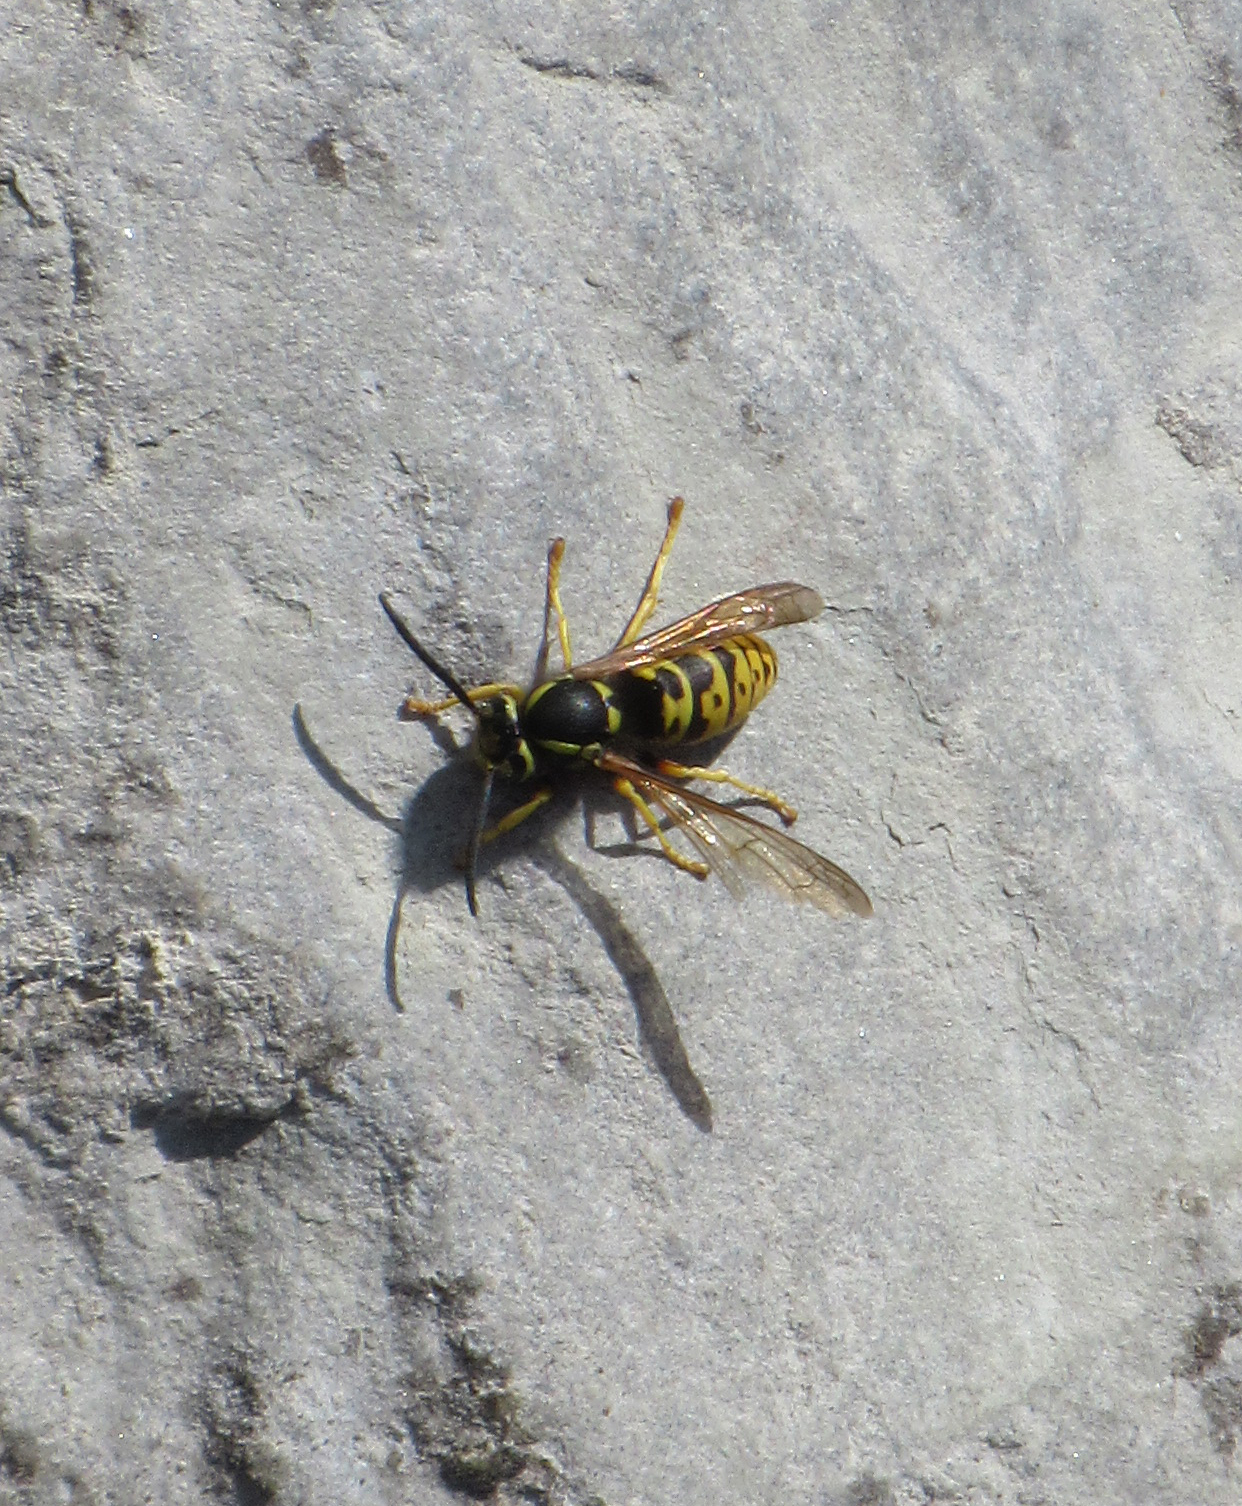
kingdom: Animalia
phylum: Arthropoda
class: Insecta
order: Hymenoptera
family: Vespidae
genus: Vespula
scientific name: Vespula atropilosa
